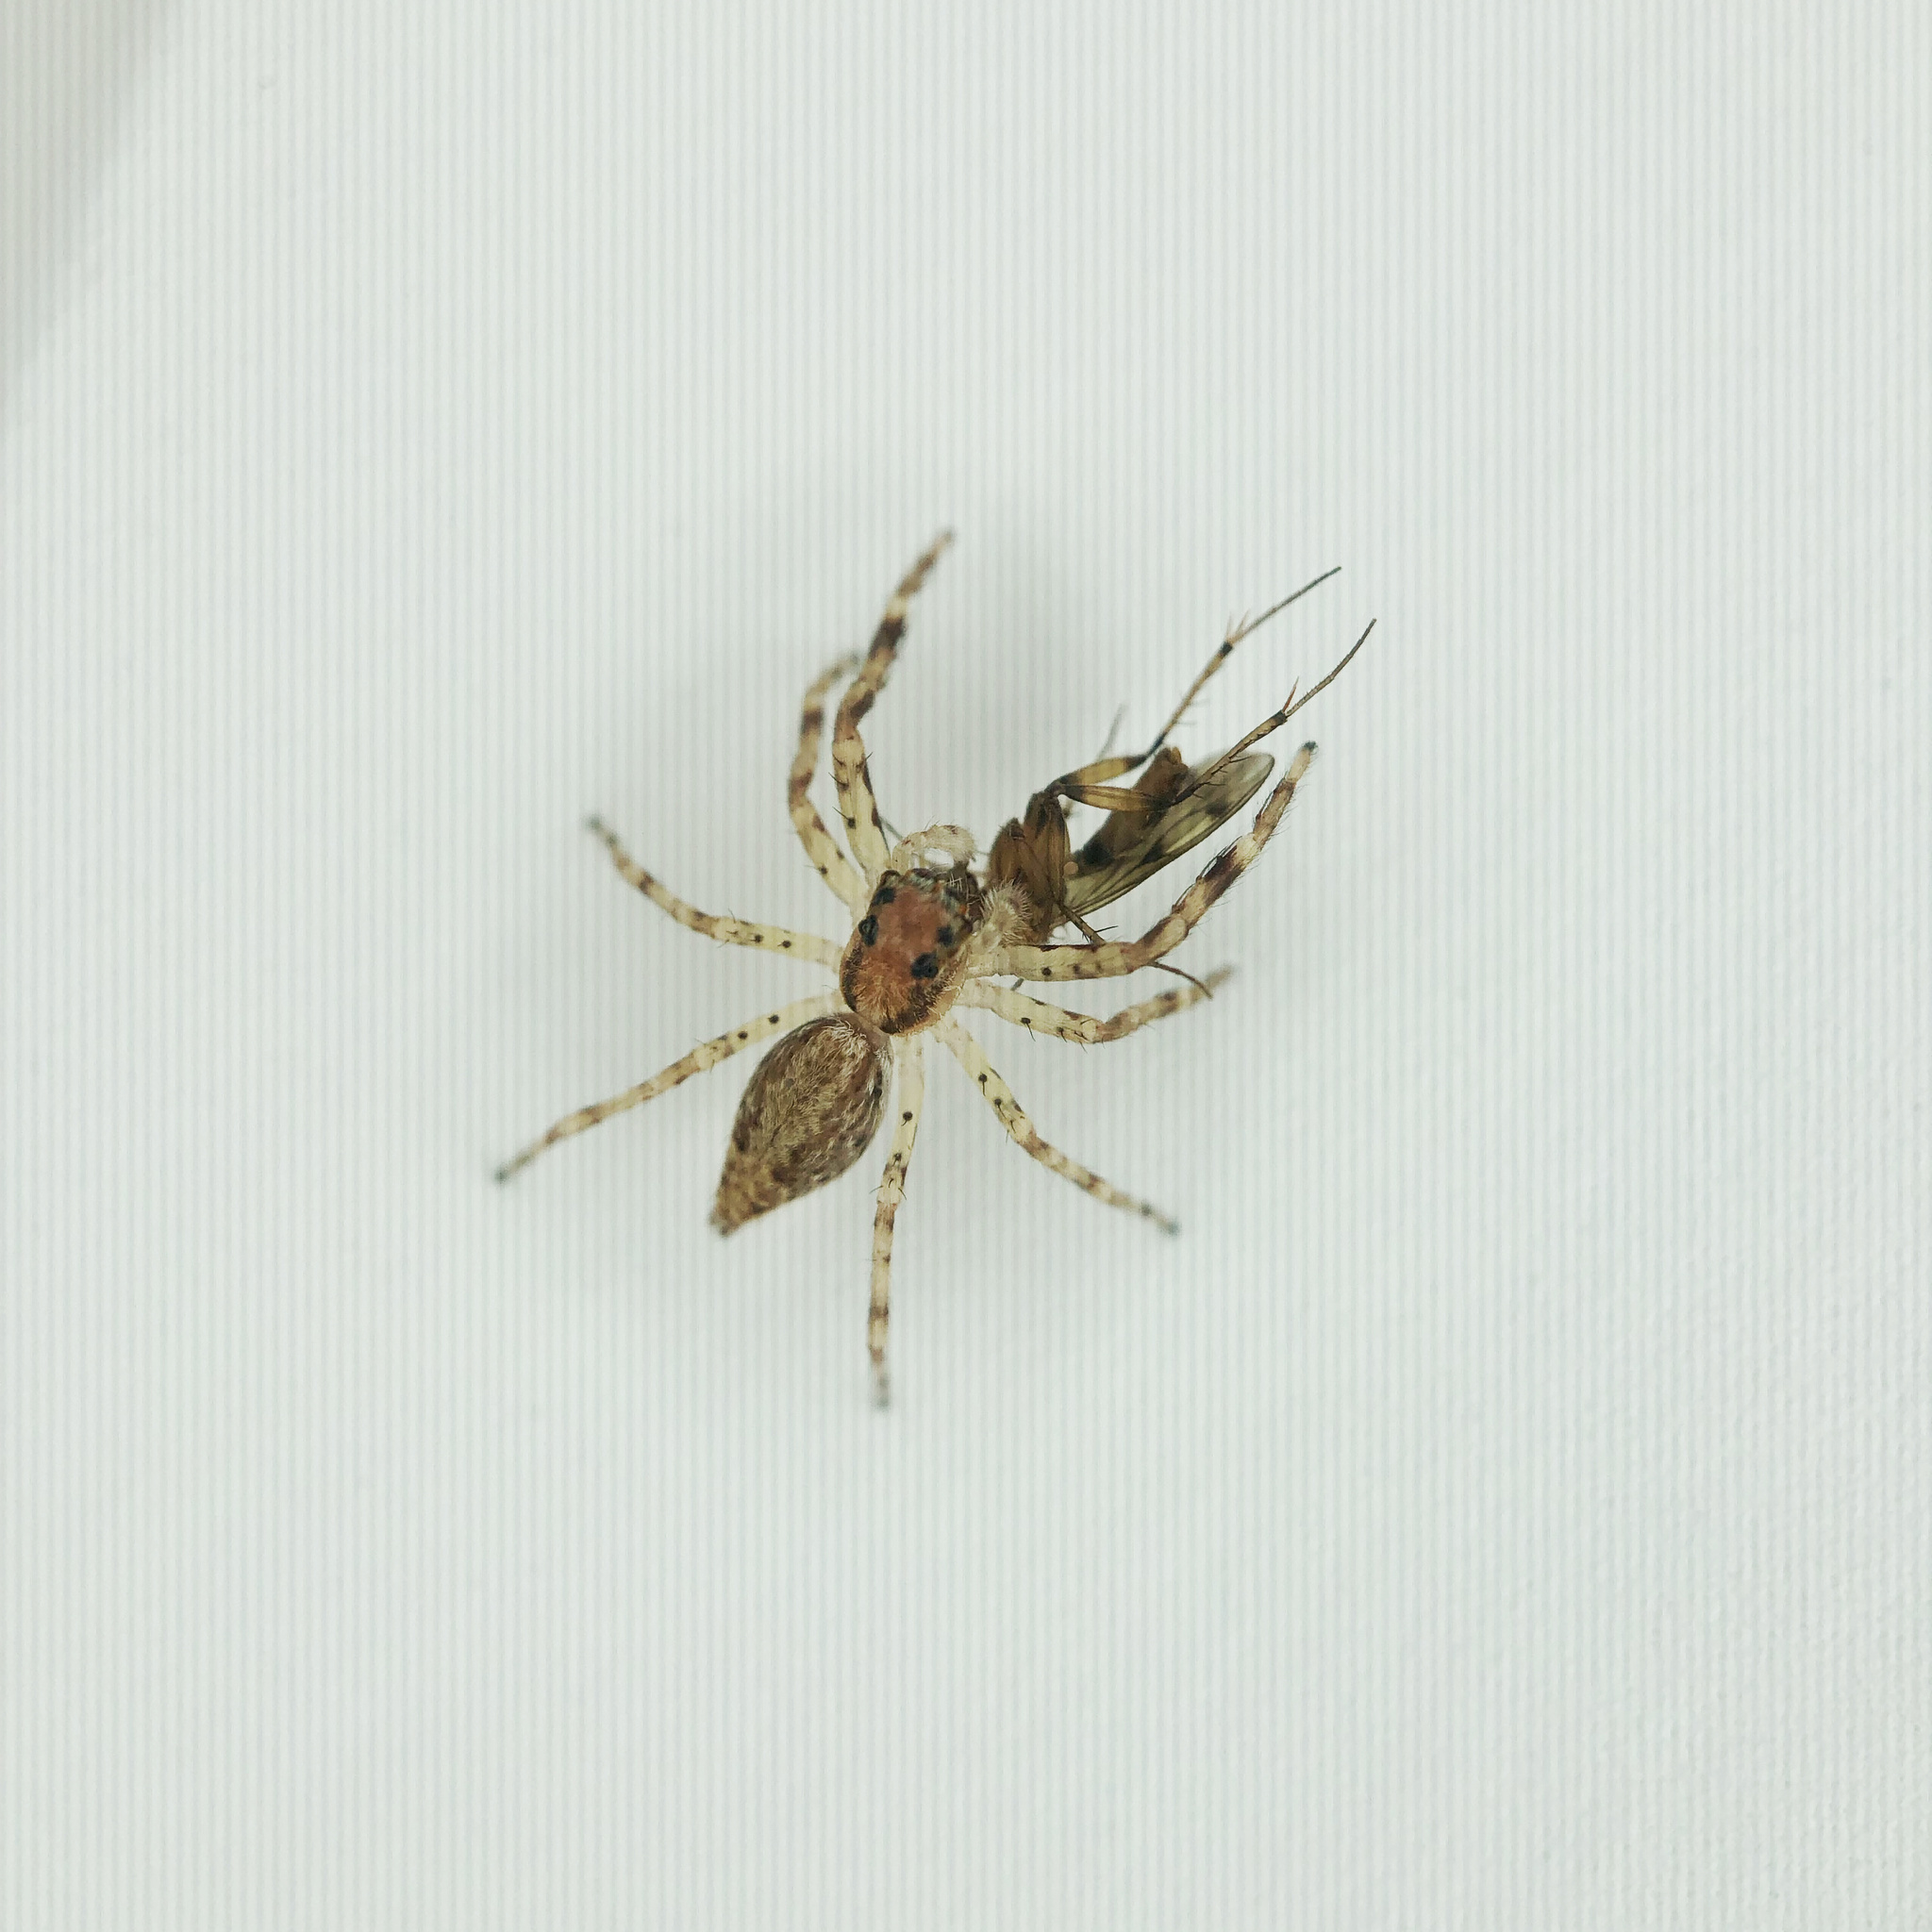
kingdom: Animalia
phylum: Arthropoda
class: Arachnida
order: Araneae
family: Salticidae
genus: Helpis
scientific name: Helpis minitabunda
